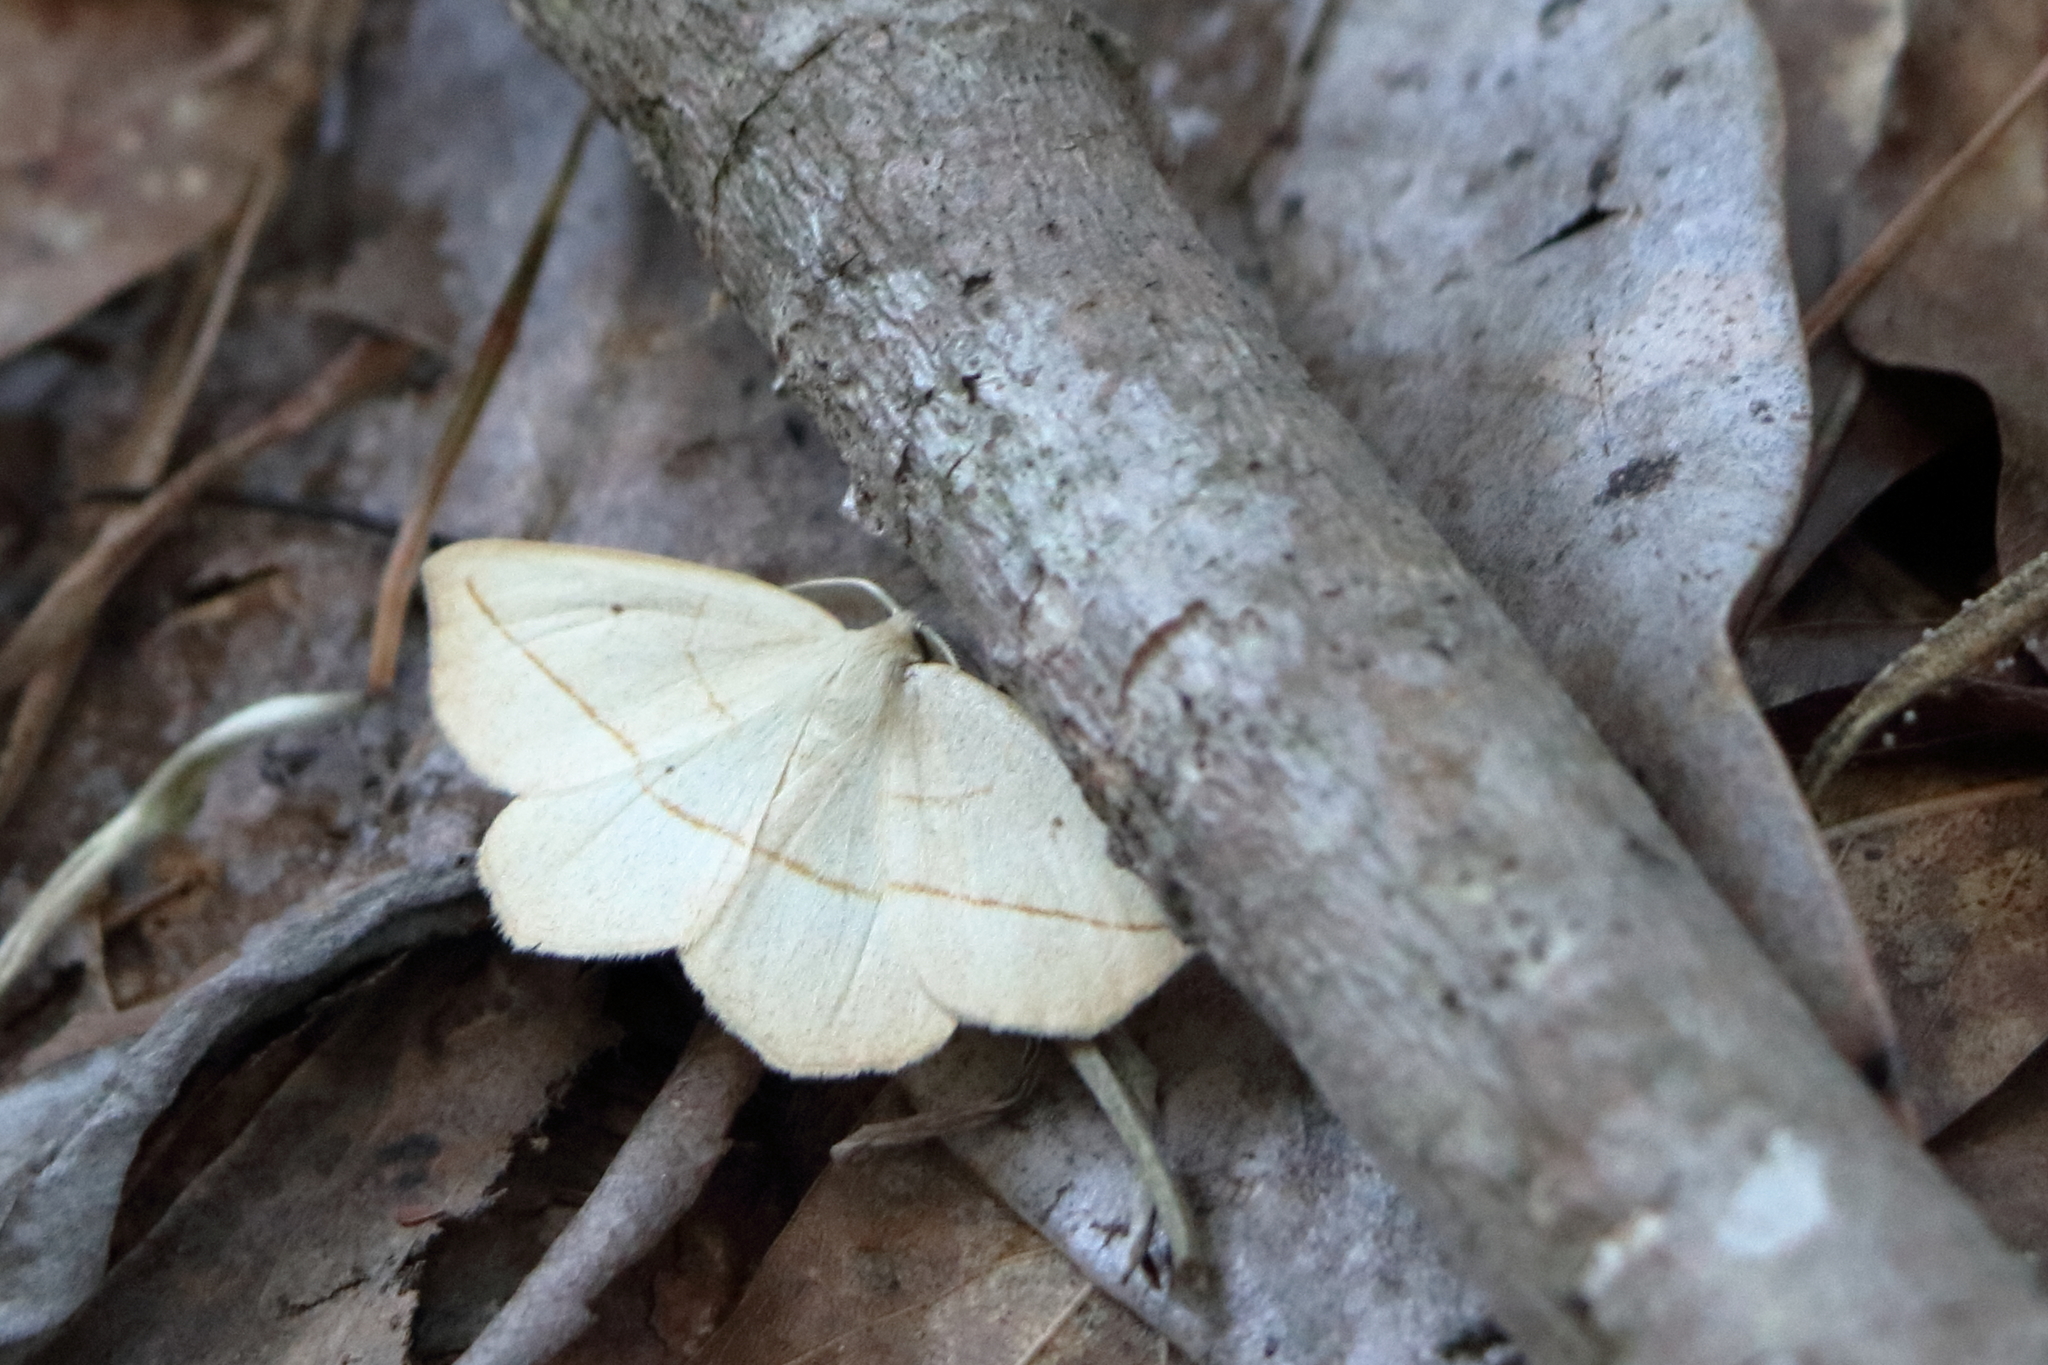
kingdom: Animalia
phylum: Arthropoda
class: Insecta
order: Lepidoptera
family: Geometridae
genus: Eusarca
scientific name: Eusarca confusaria
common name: Confused eusarca
